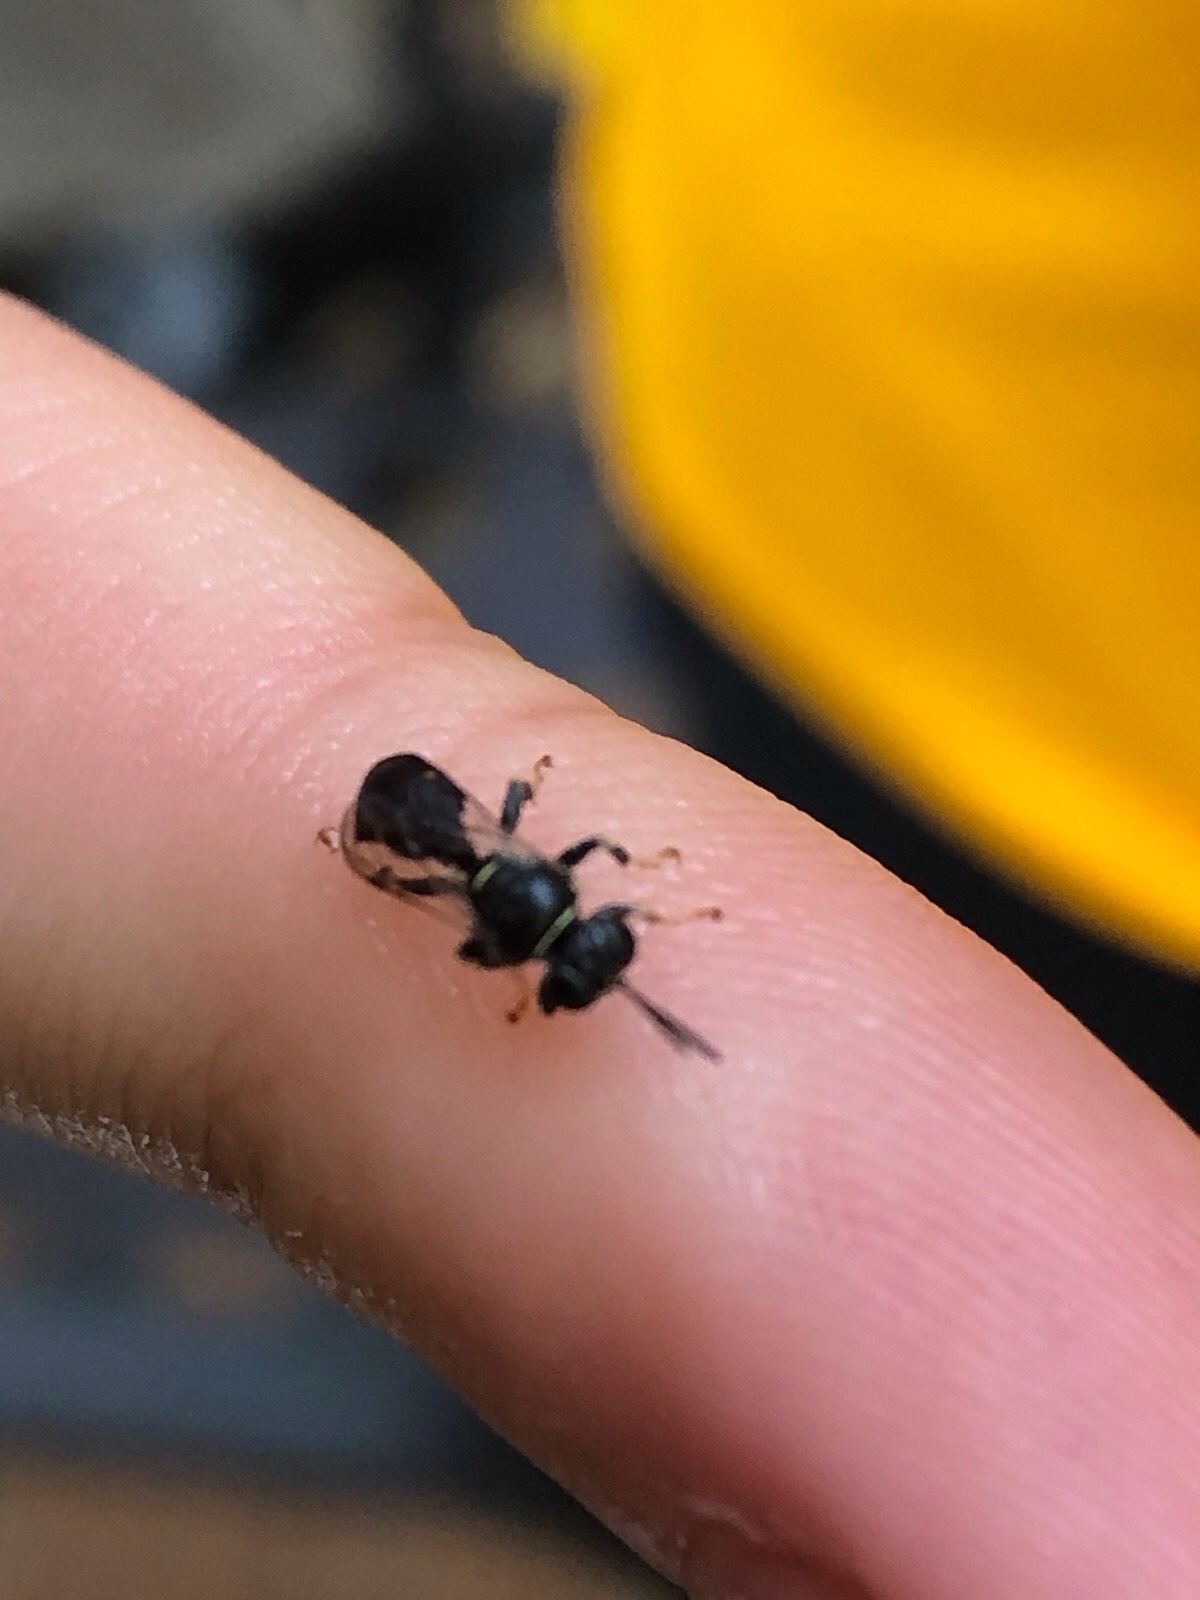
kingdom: Animalia
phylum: Arthropoda
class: Insecta
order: Hymenoptera
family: Crabronidae
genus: Clitemnestra
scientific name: Clitemnestra bipunctata
